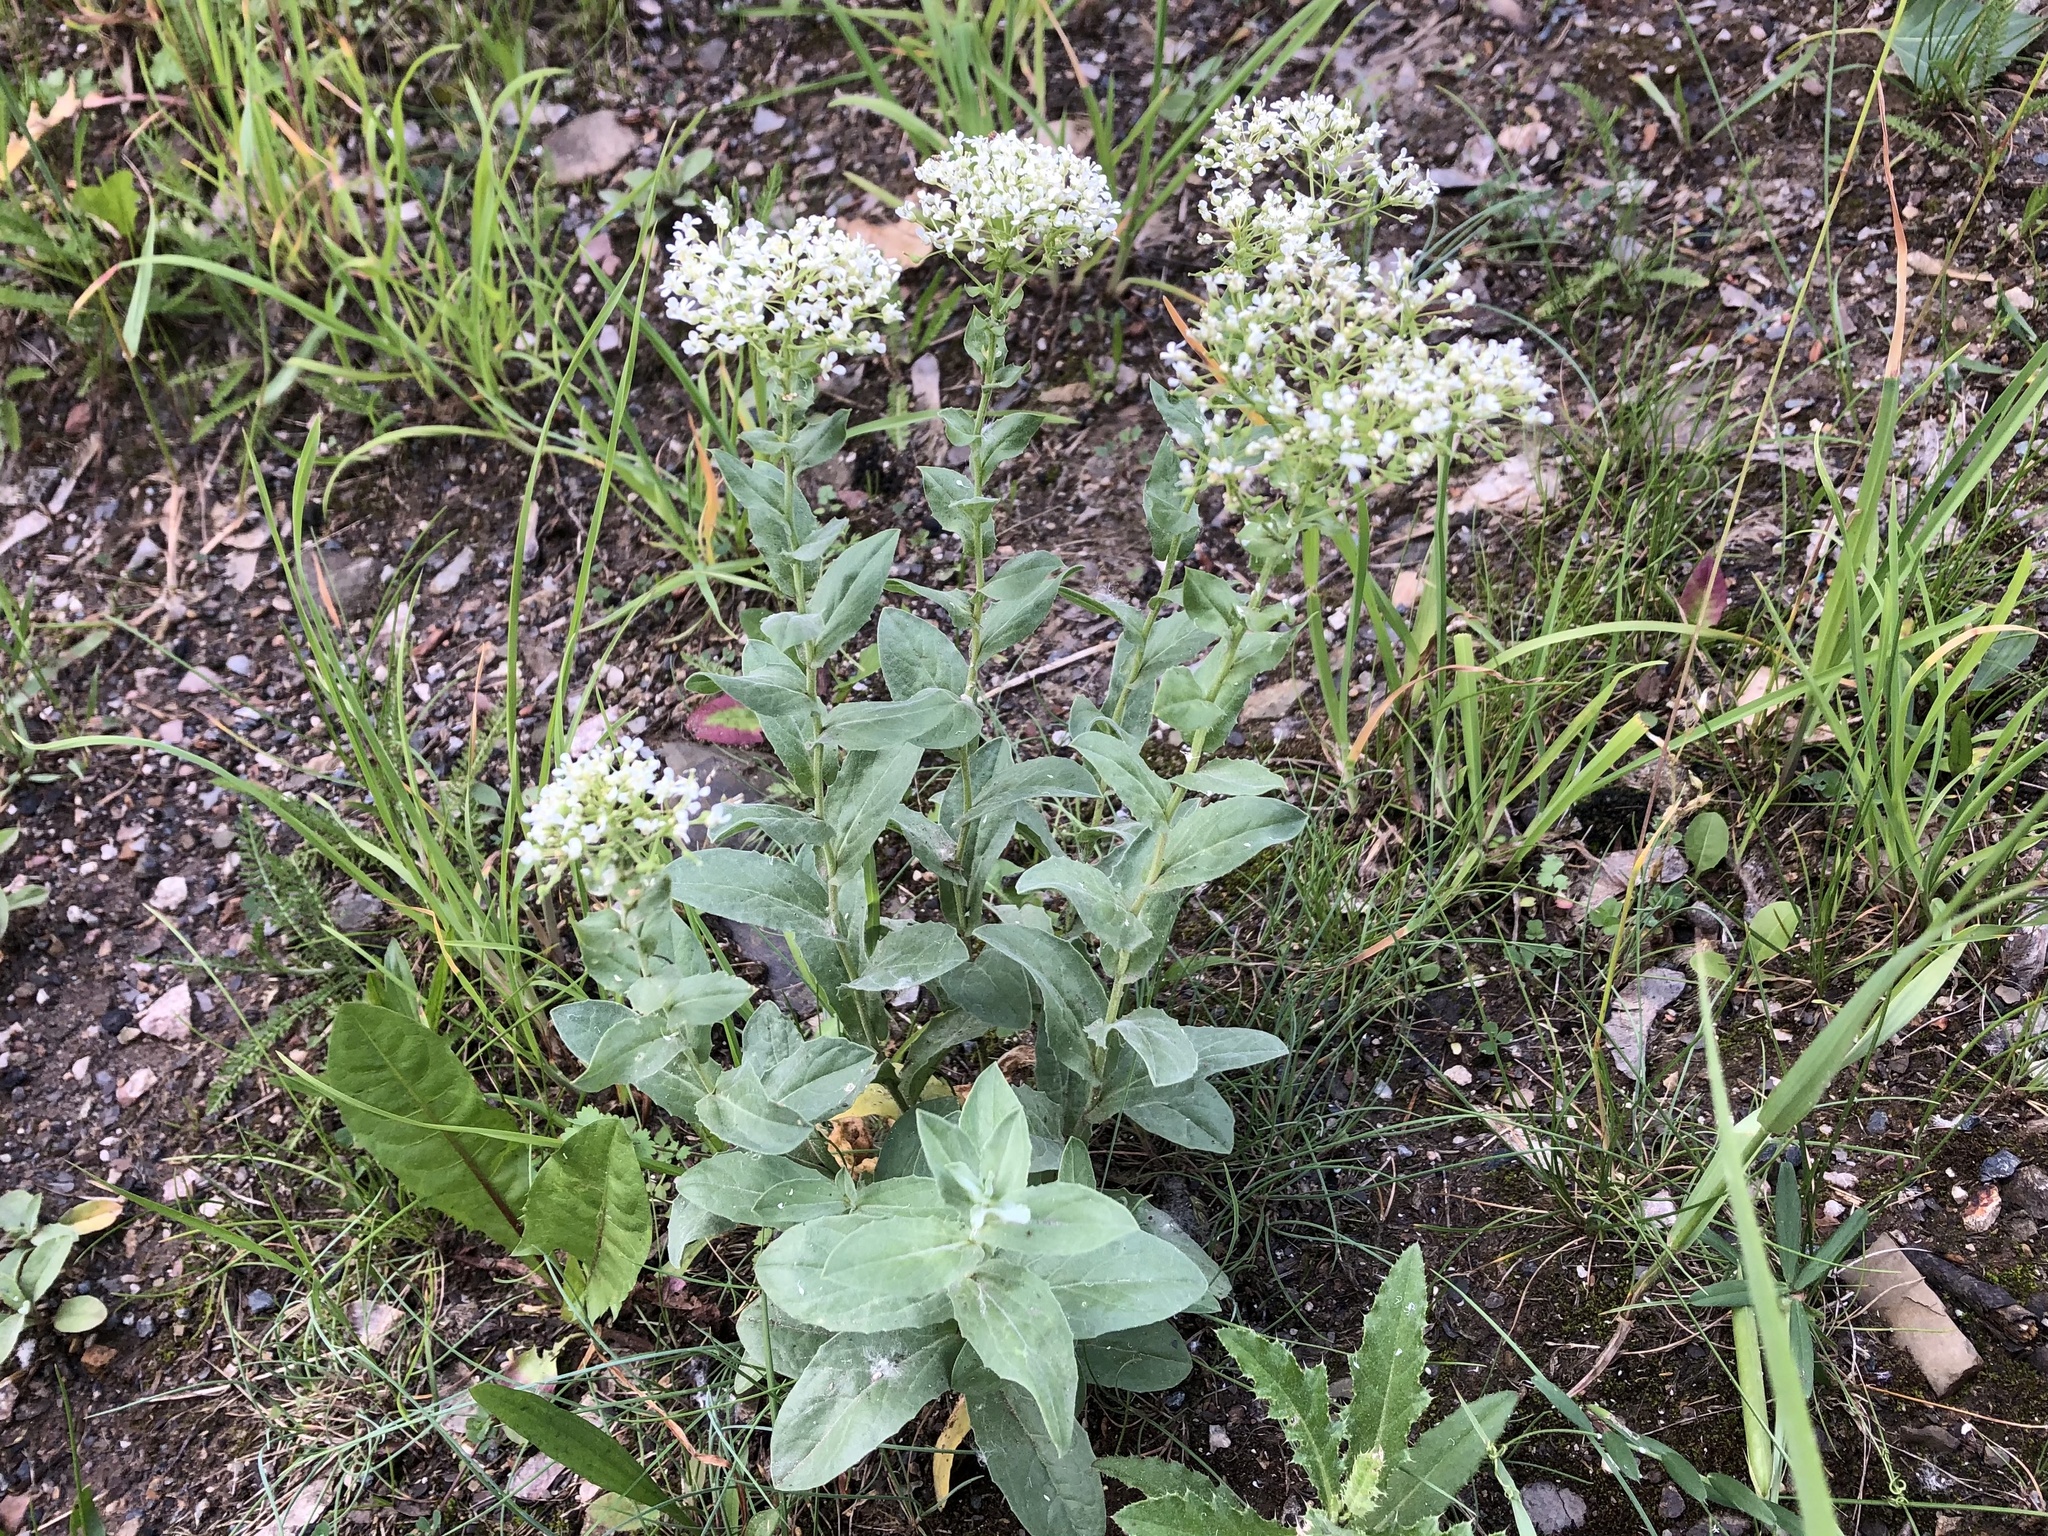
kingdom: Plantae
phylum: Tracheophyta
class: Magnoliopsida
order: Brassicales
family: Brassicaceae
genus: Lepidium
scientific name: Lepidium draba
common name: Hoary cress
